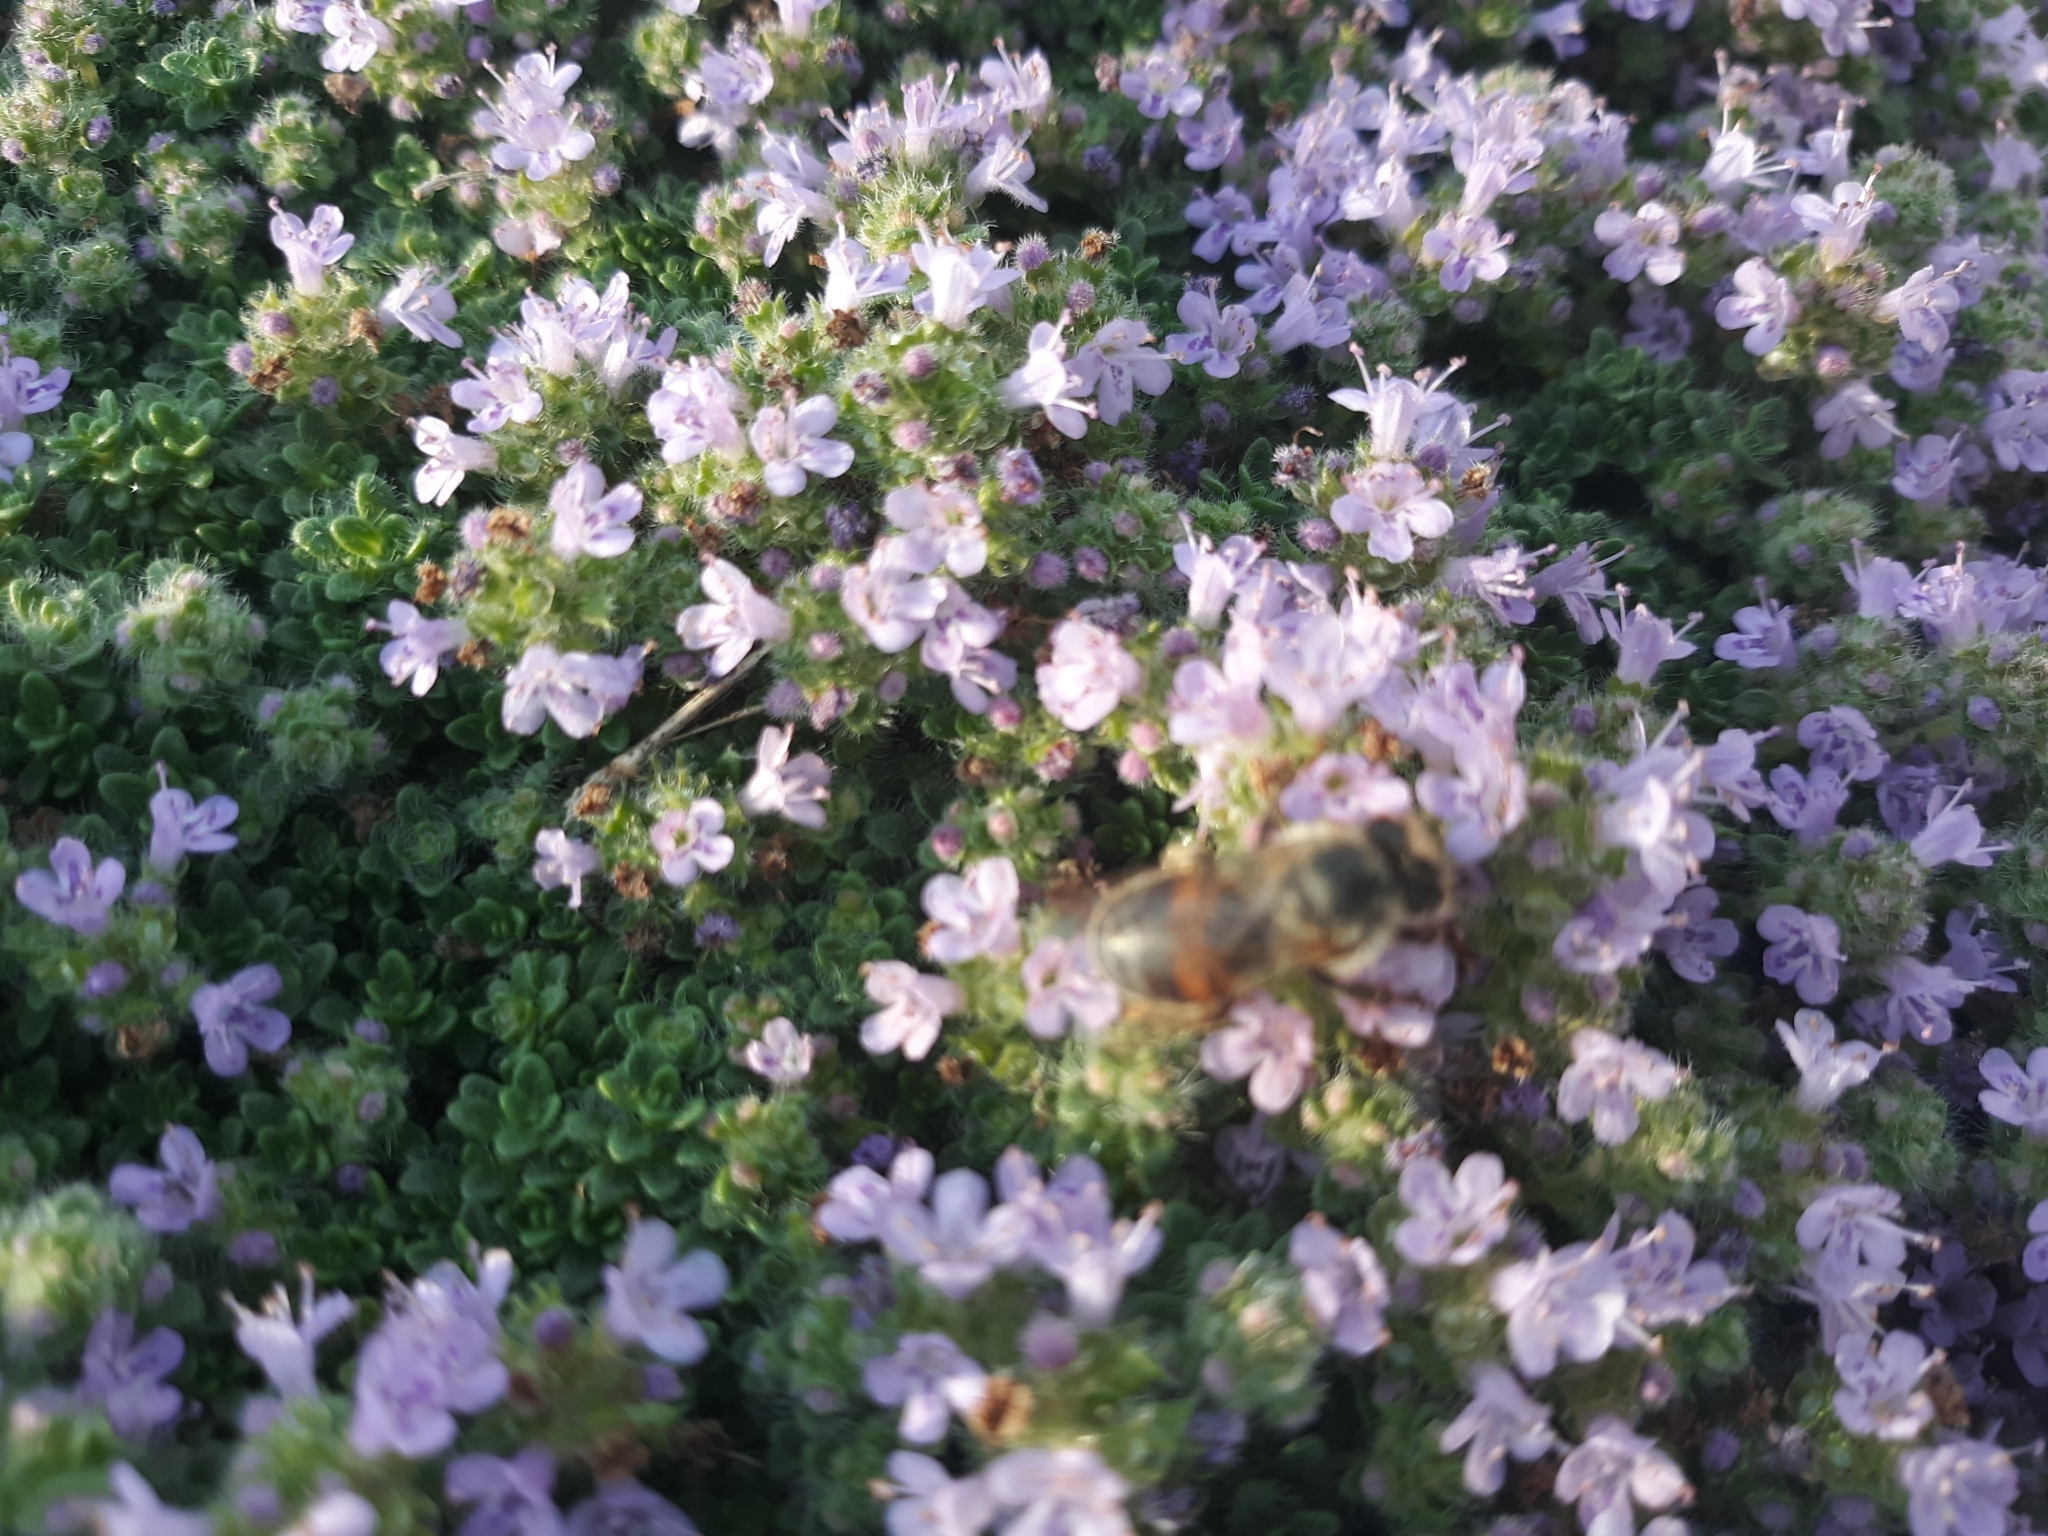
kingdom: Animalia
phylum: Arthropoda
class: Insecta
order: Hymenoptera
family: Apidae
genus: Apis
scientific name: Apis mellifera
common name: Honey bee
